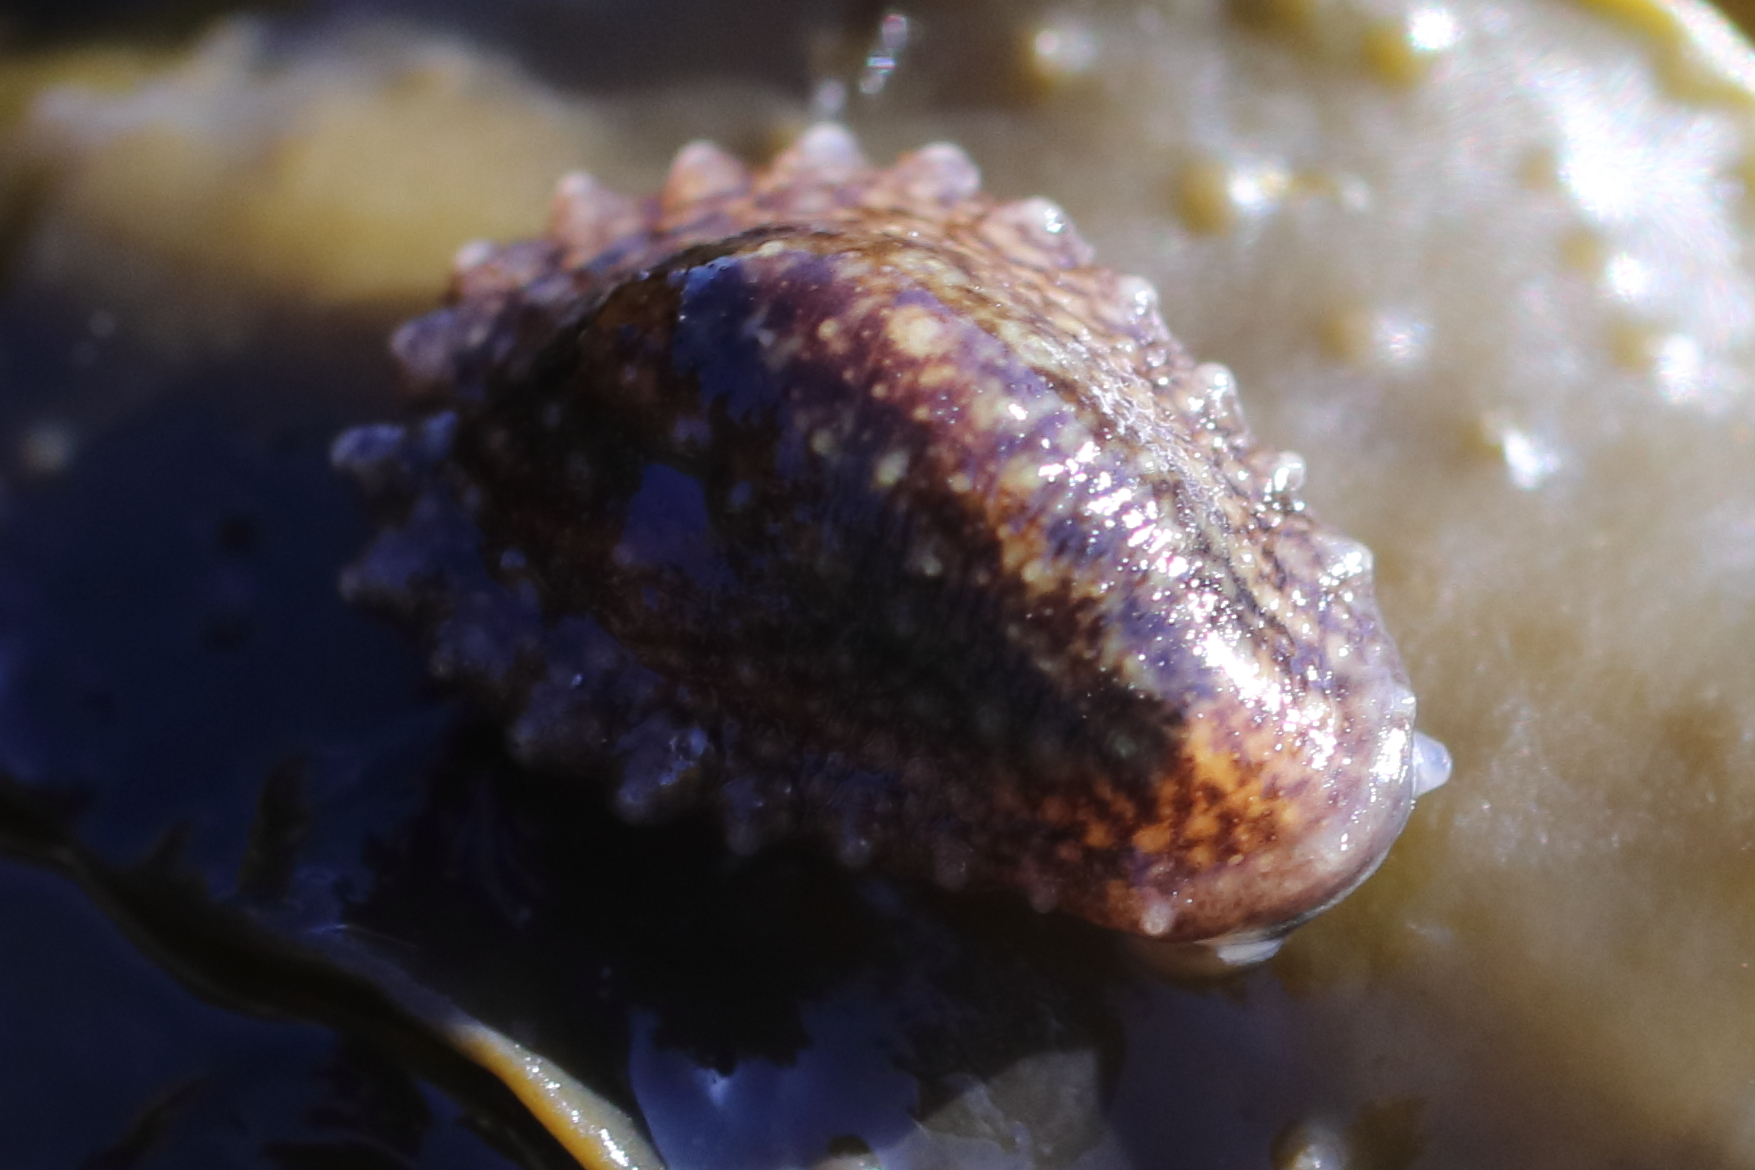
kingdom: Animalia
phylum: Mollusca
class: Gastropoda
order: Systellommatophora
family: Onchidiidae
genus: Onchidella
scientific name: Onchidella carpenteri
